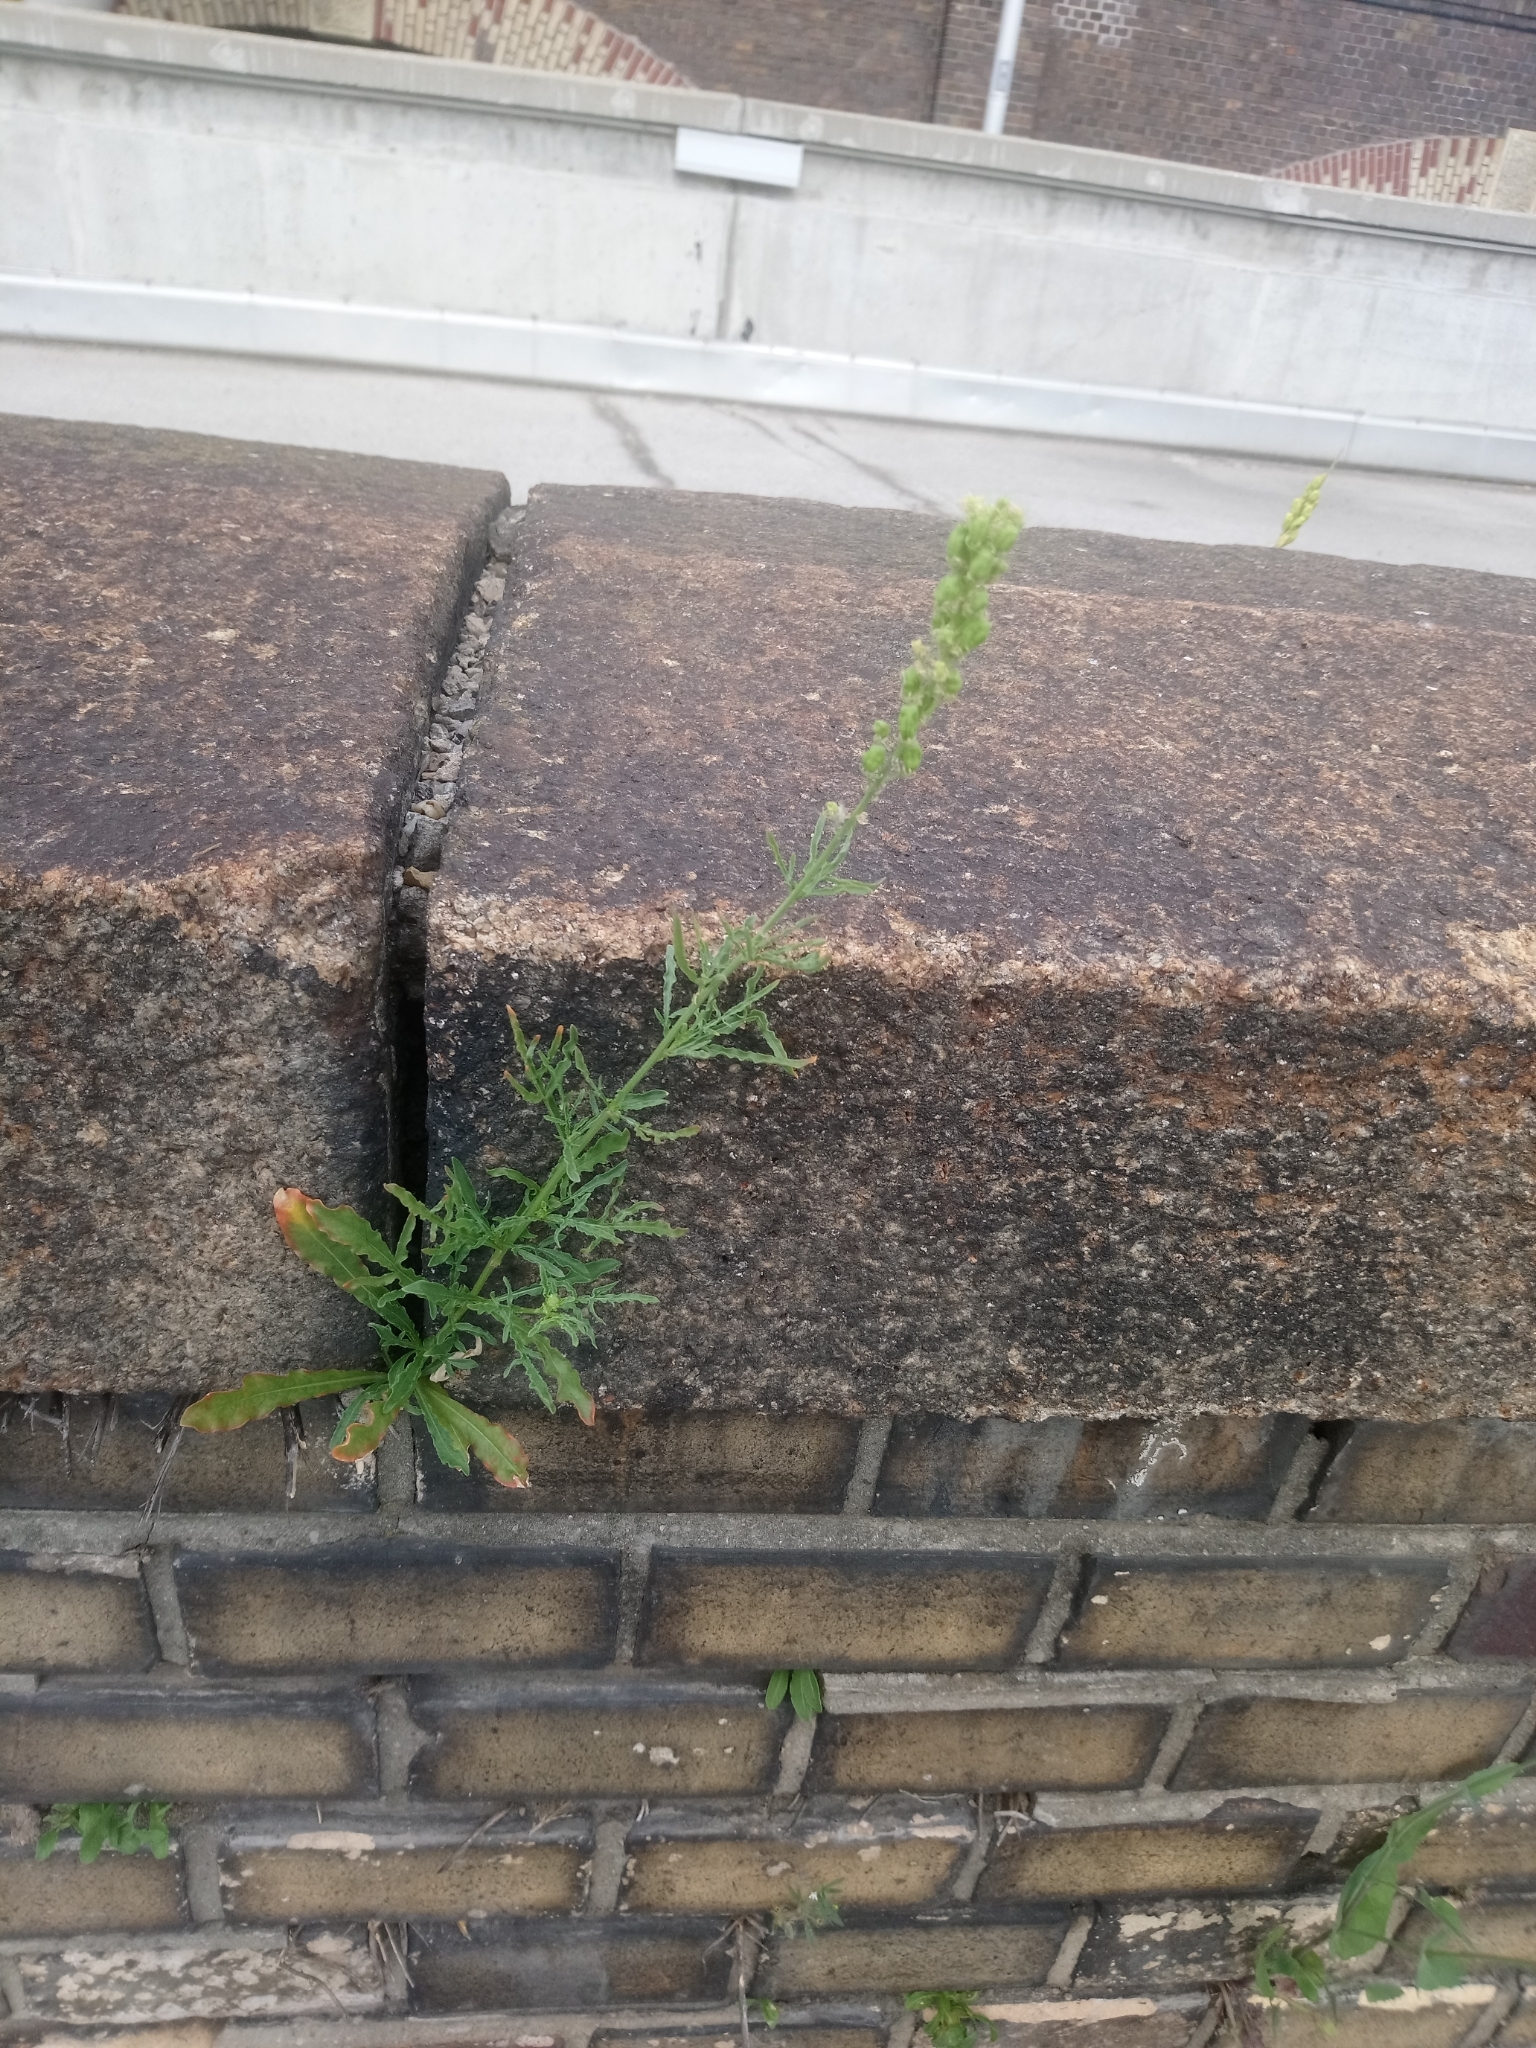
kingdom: Plantae
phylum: Tracheophyta
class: Magnoliopsida
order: Brassicales
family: Resedaceae
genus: Reseda
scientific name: Reseda lutea
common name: Wild mignonette
